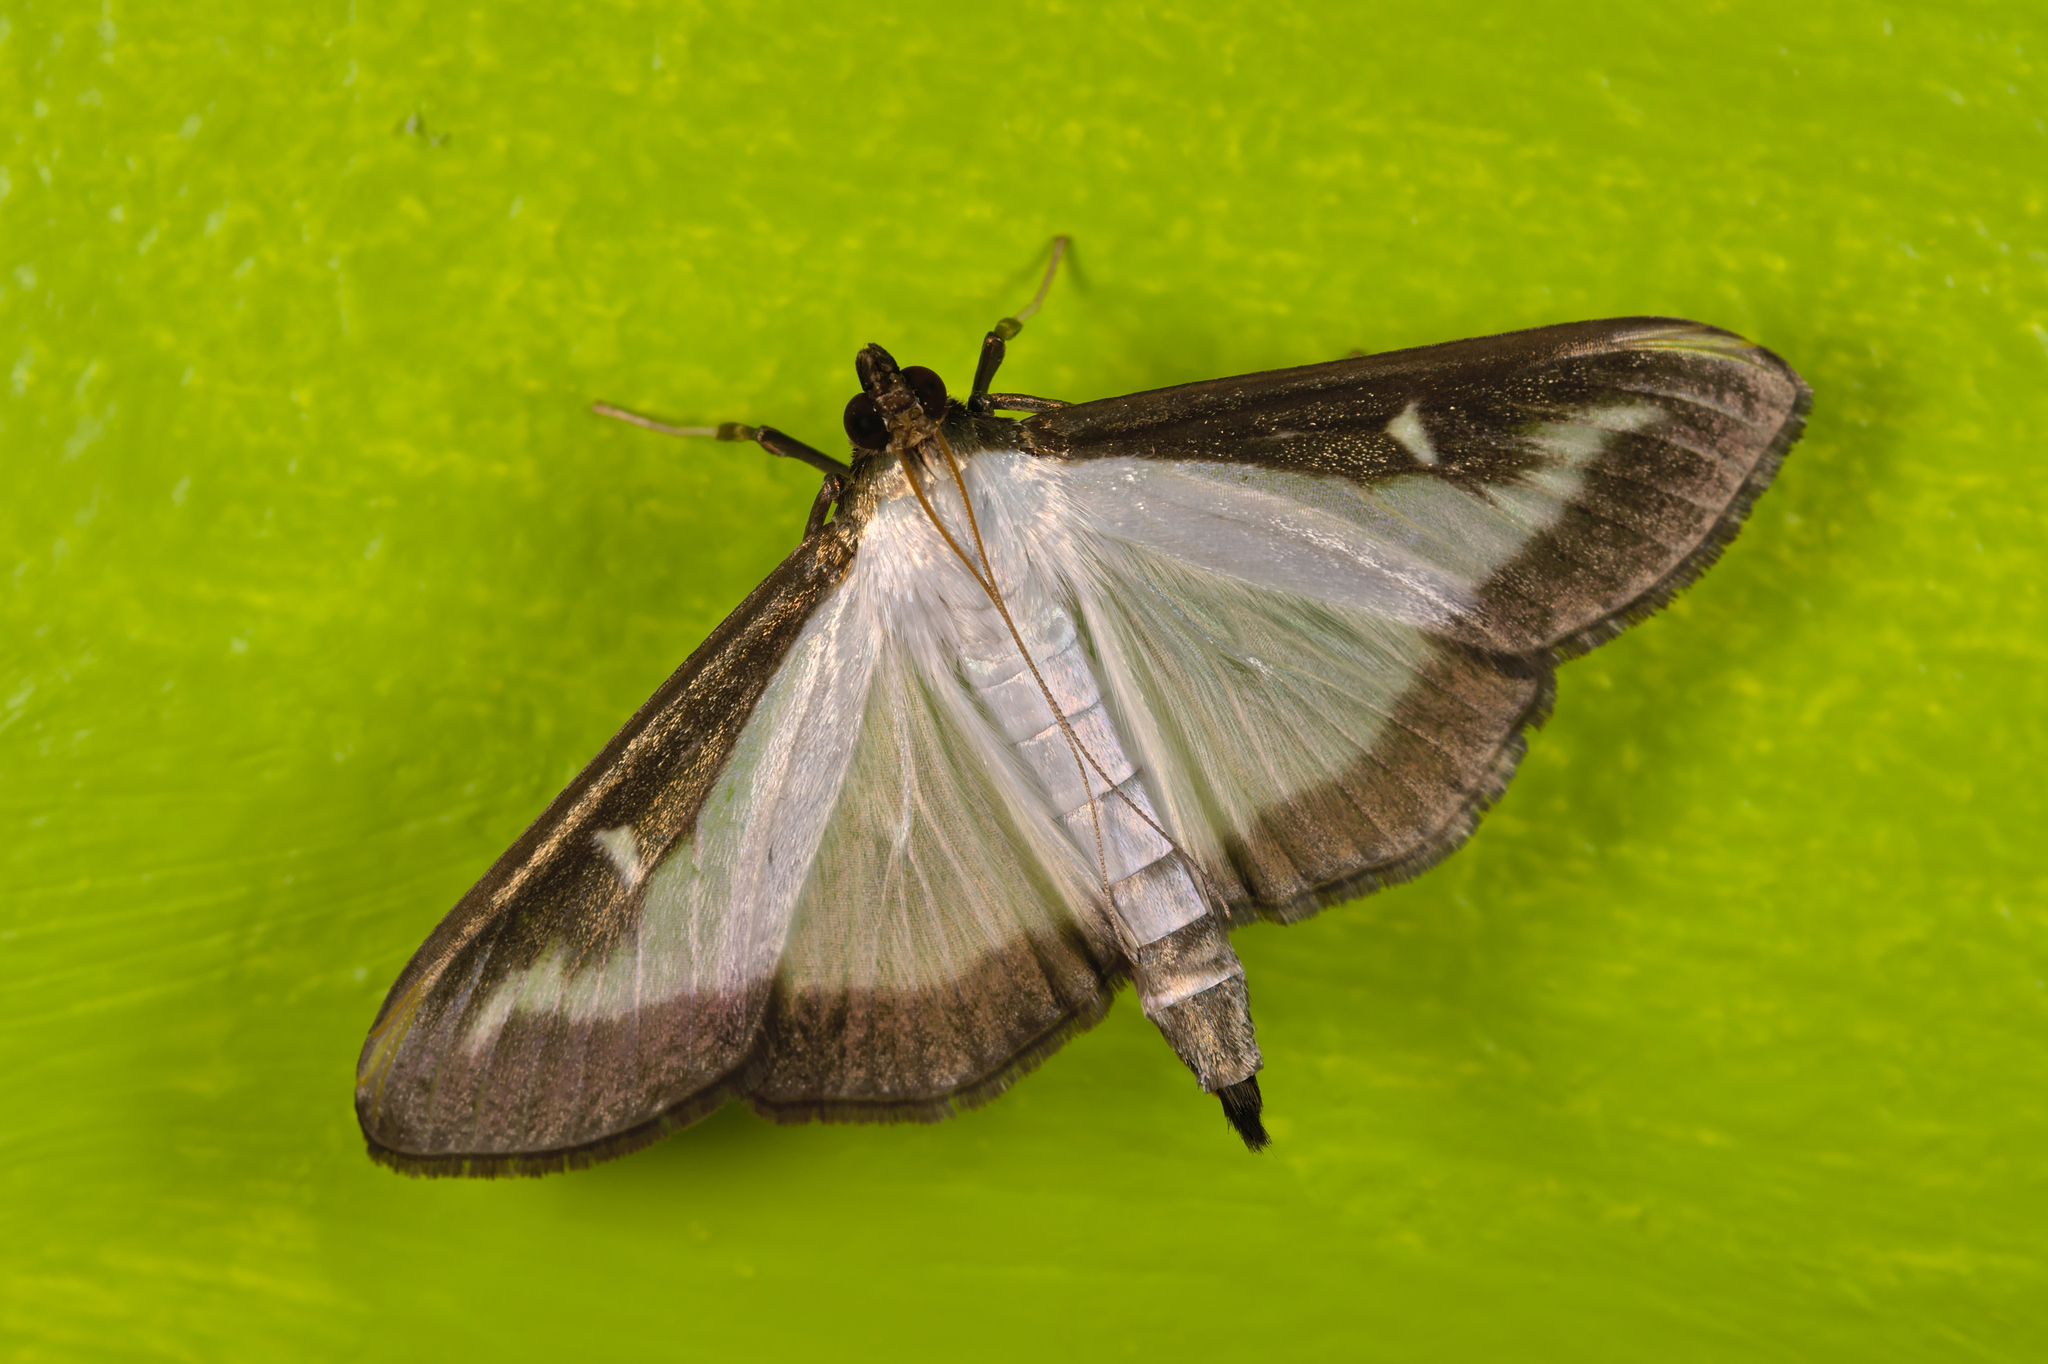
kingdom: Animalia
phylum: Arthropoda
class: Insecta
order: Lepidoptera
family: Crambidae
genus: Cydalima
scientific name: Cydalima perspectalis
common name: Box tree moth
